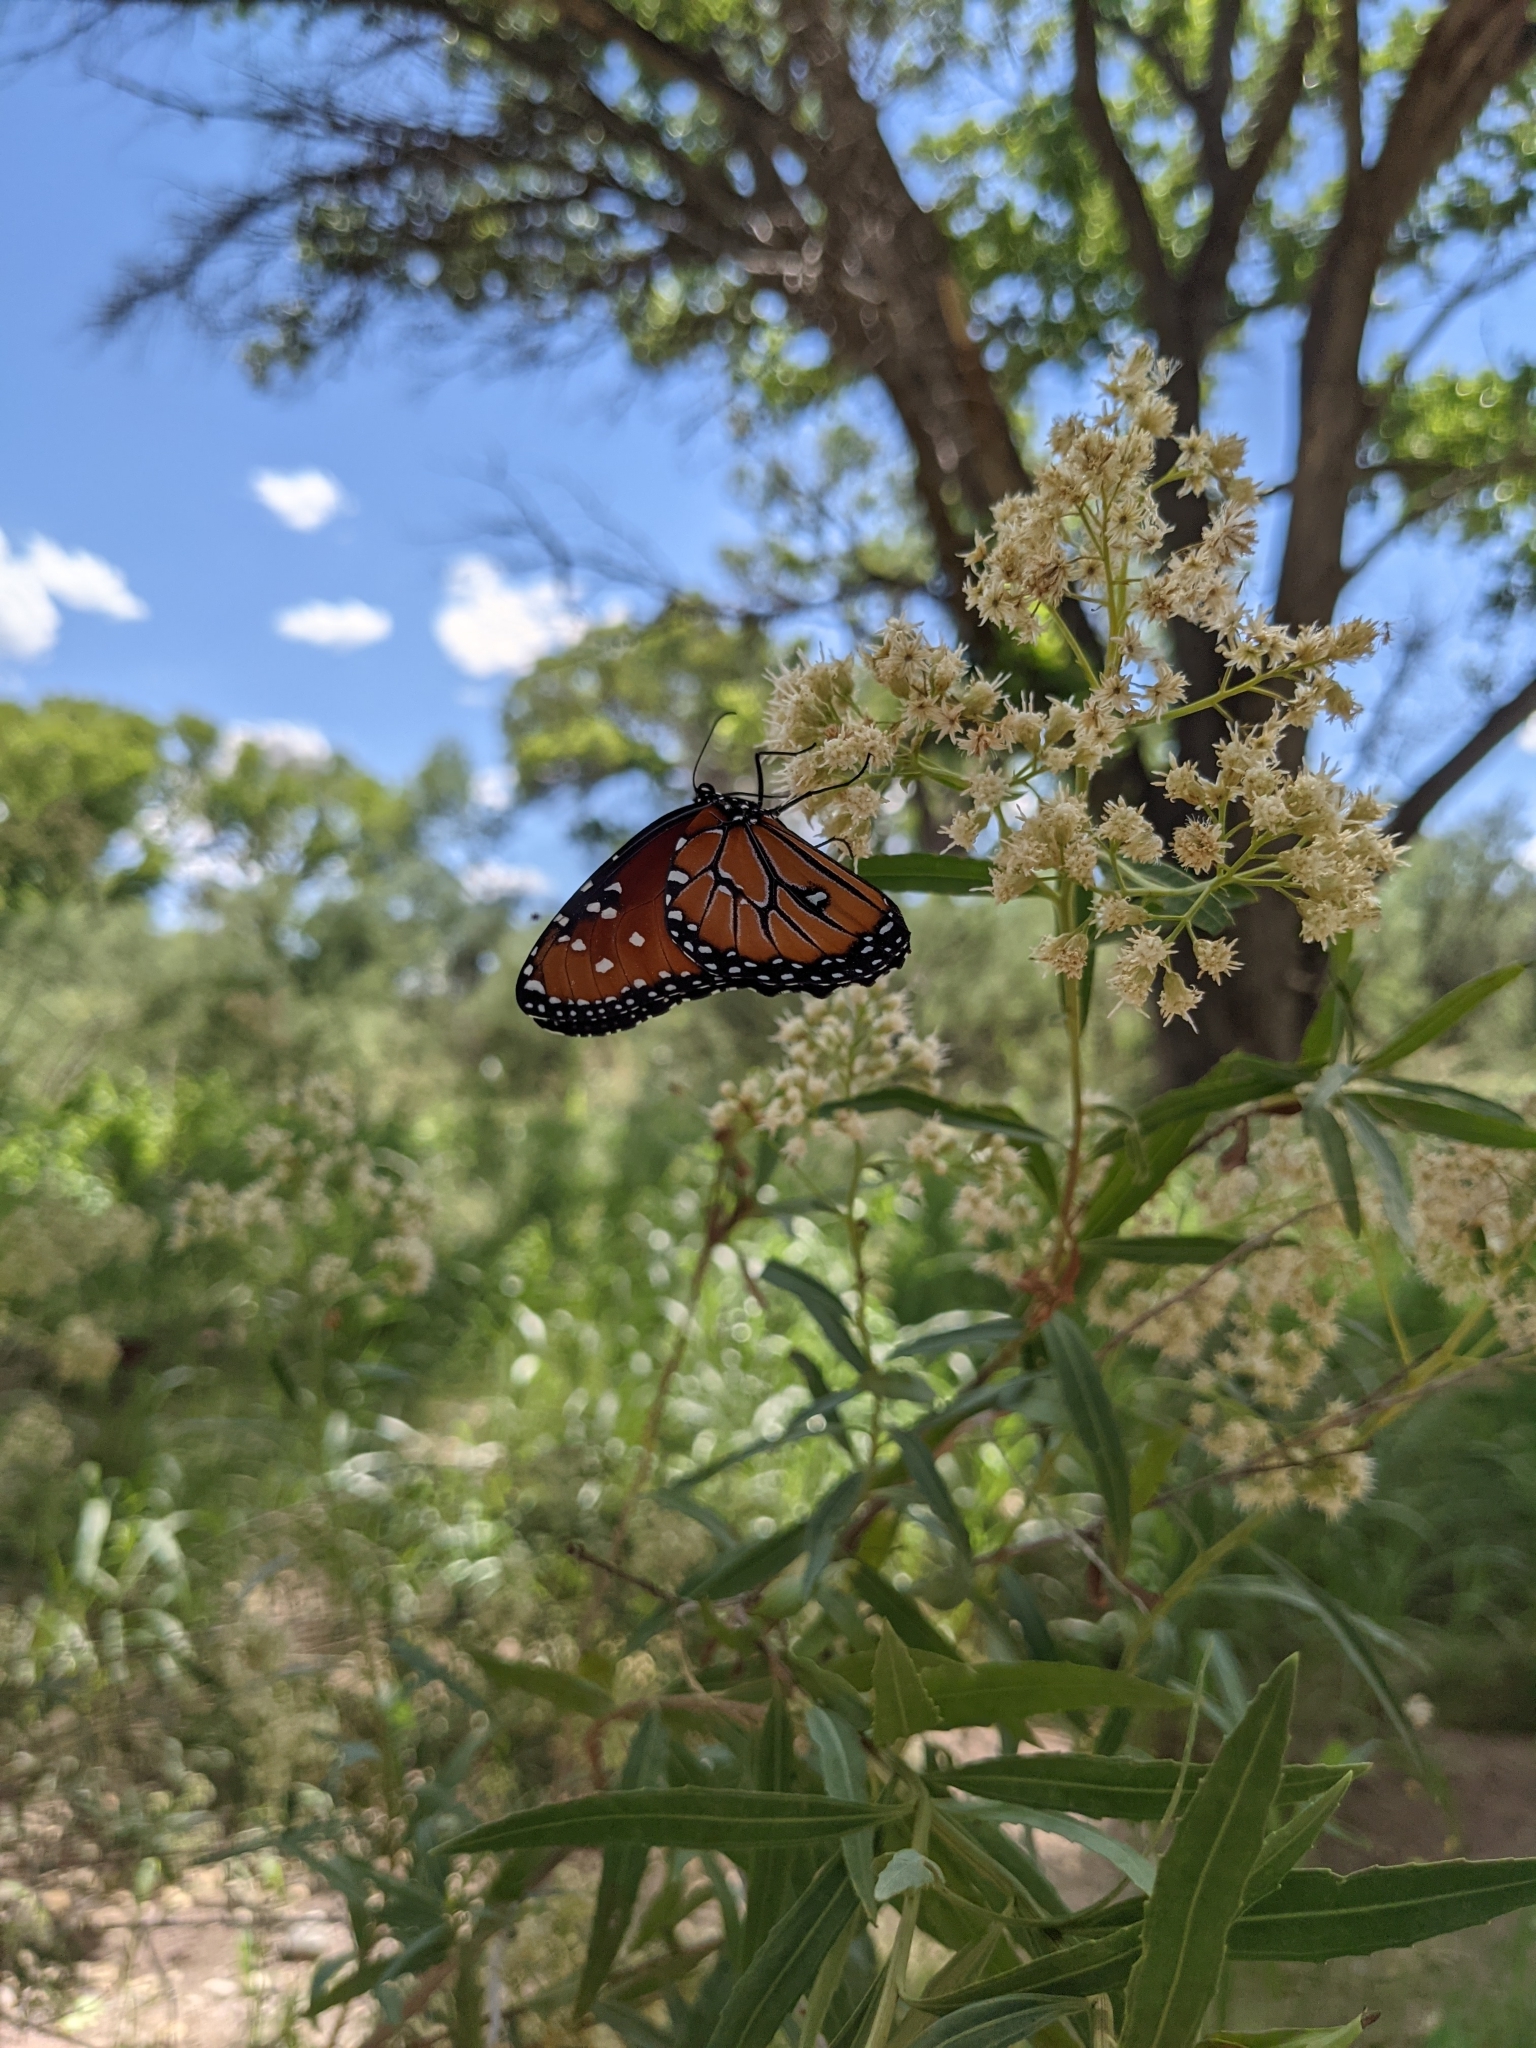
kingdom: Animalia
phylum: Arthropoda
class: Insecta
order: Lepidoptera
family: Nymphalidae
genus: Danaus
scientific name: Danaus gilippus
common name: Queen
